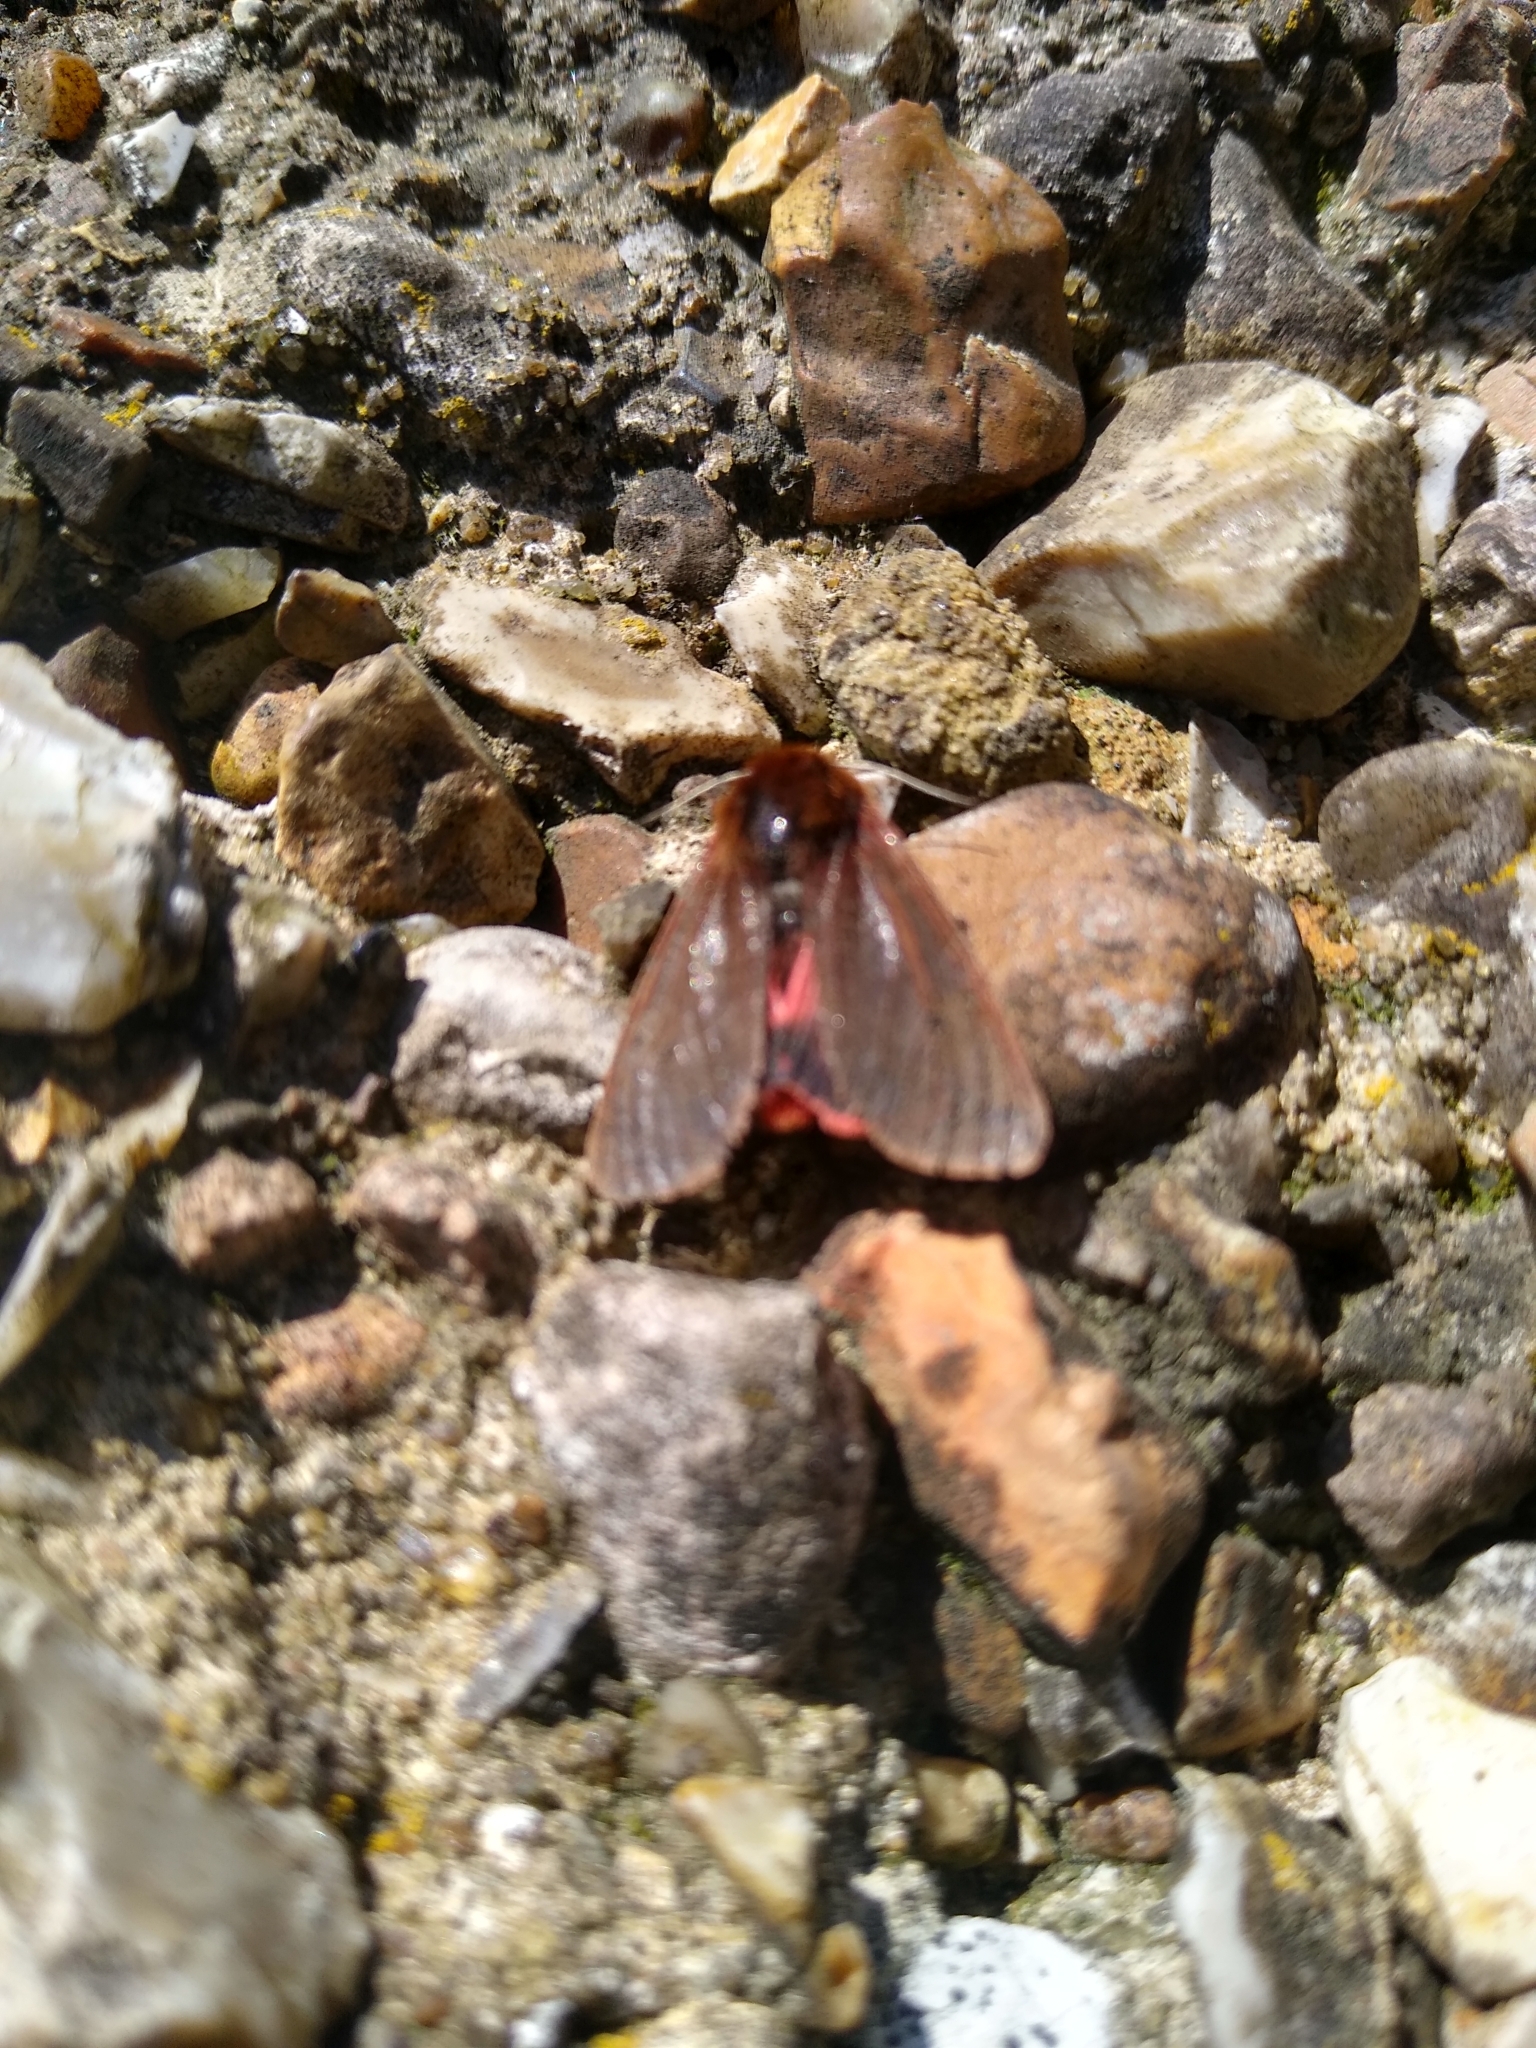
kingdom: Animalia
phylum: Arthropoda
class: Insecta
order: Lepidoptera
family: Erebidae
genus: Phragmatobia
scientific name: Phragmatobia fuliginosa
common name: Ruby tiger
